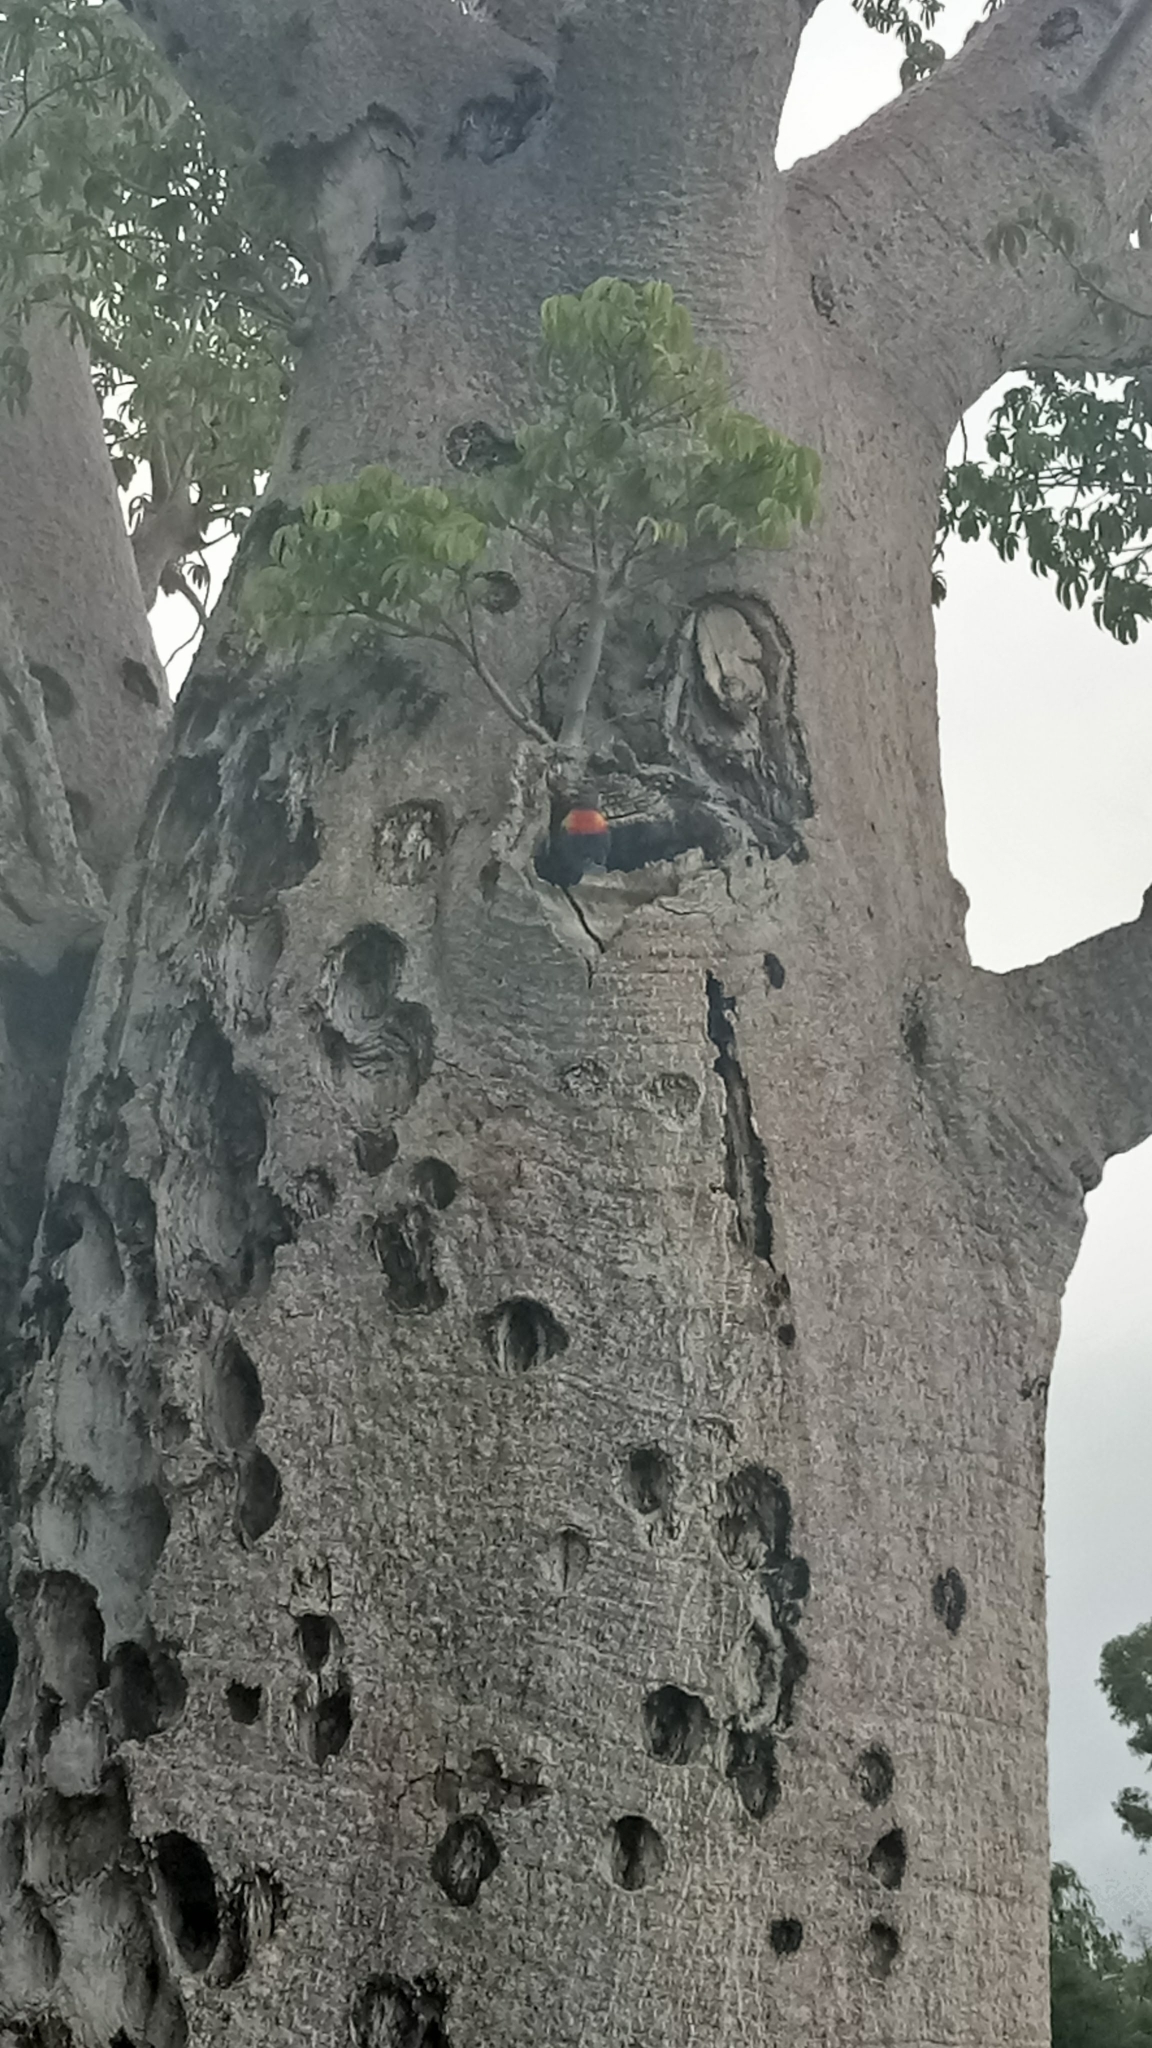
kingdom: Animalia
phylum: Chordata
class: Aves
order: Psittaciformes
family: Psittacidae
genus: Trichoglossus
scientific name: Trichoglossus haematodus
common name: Coconut lorikeet
